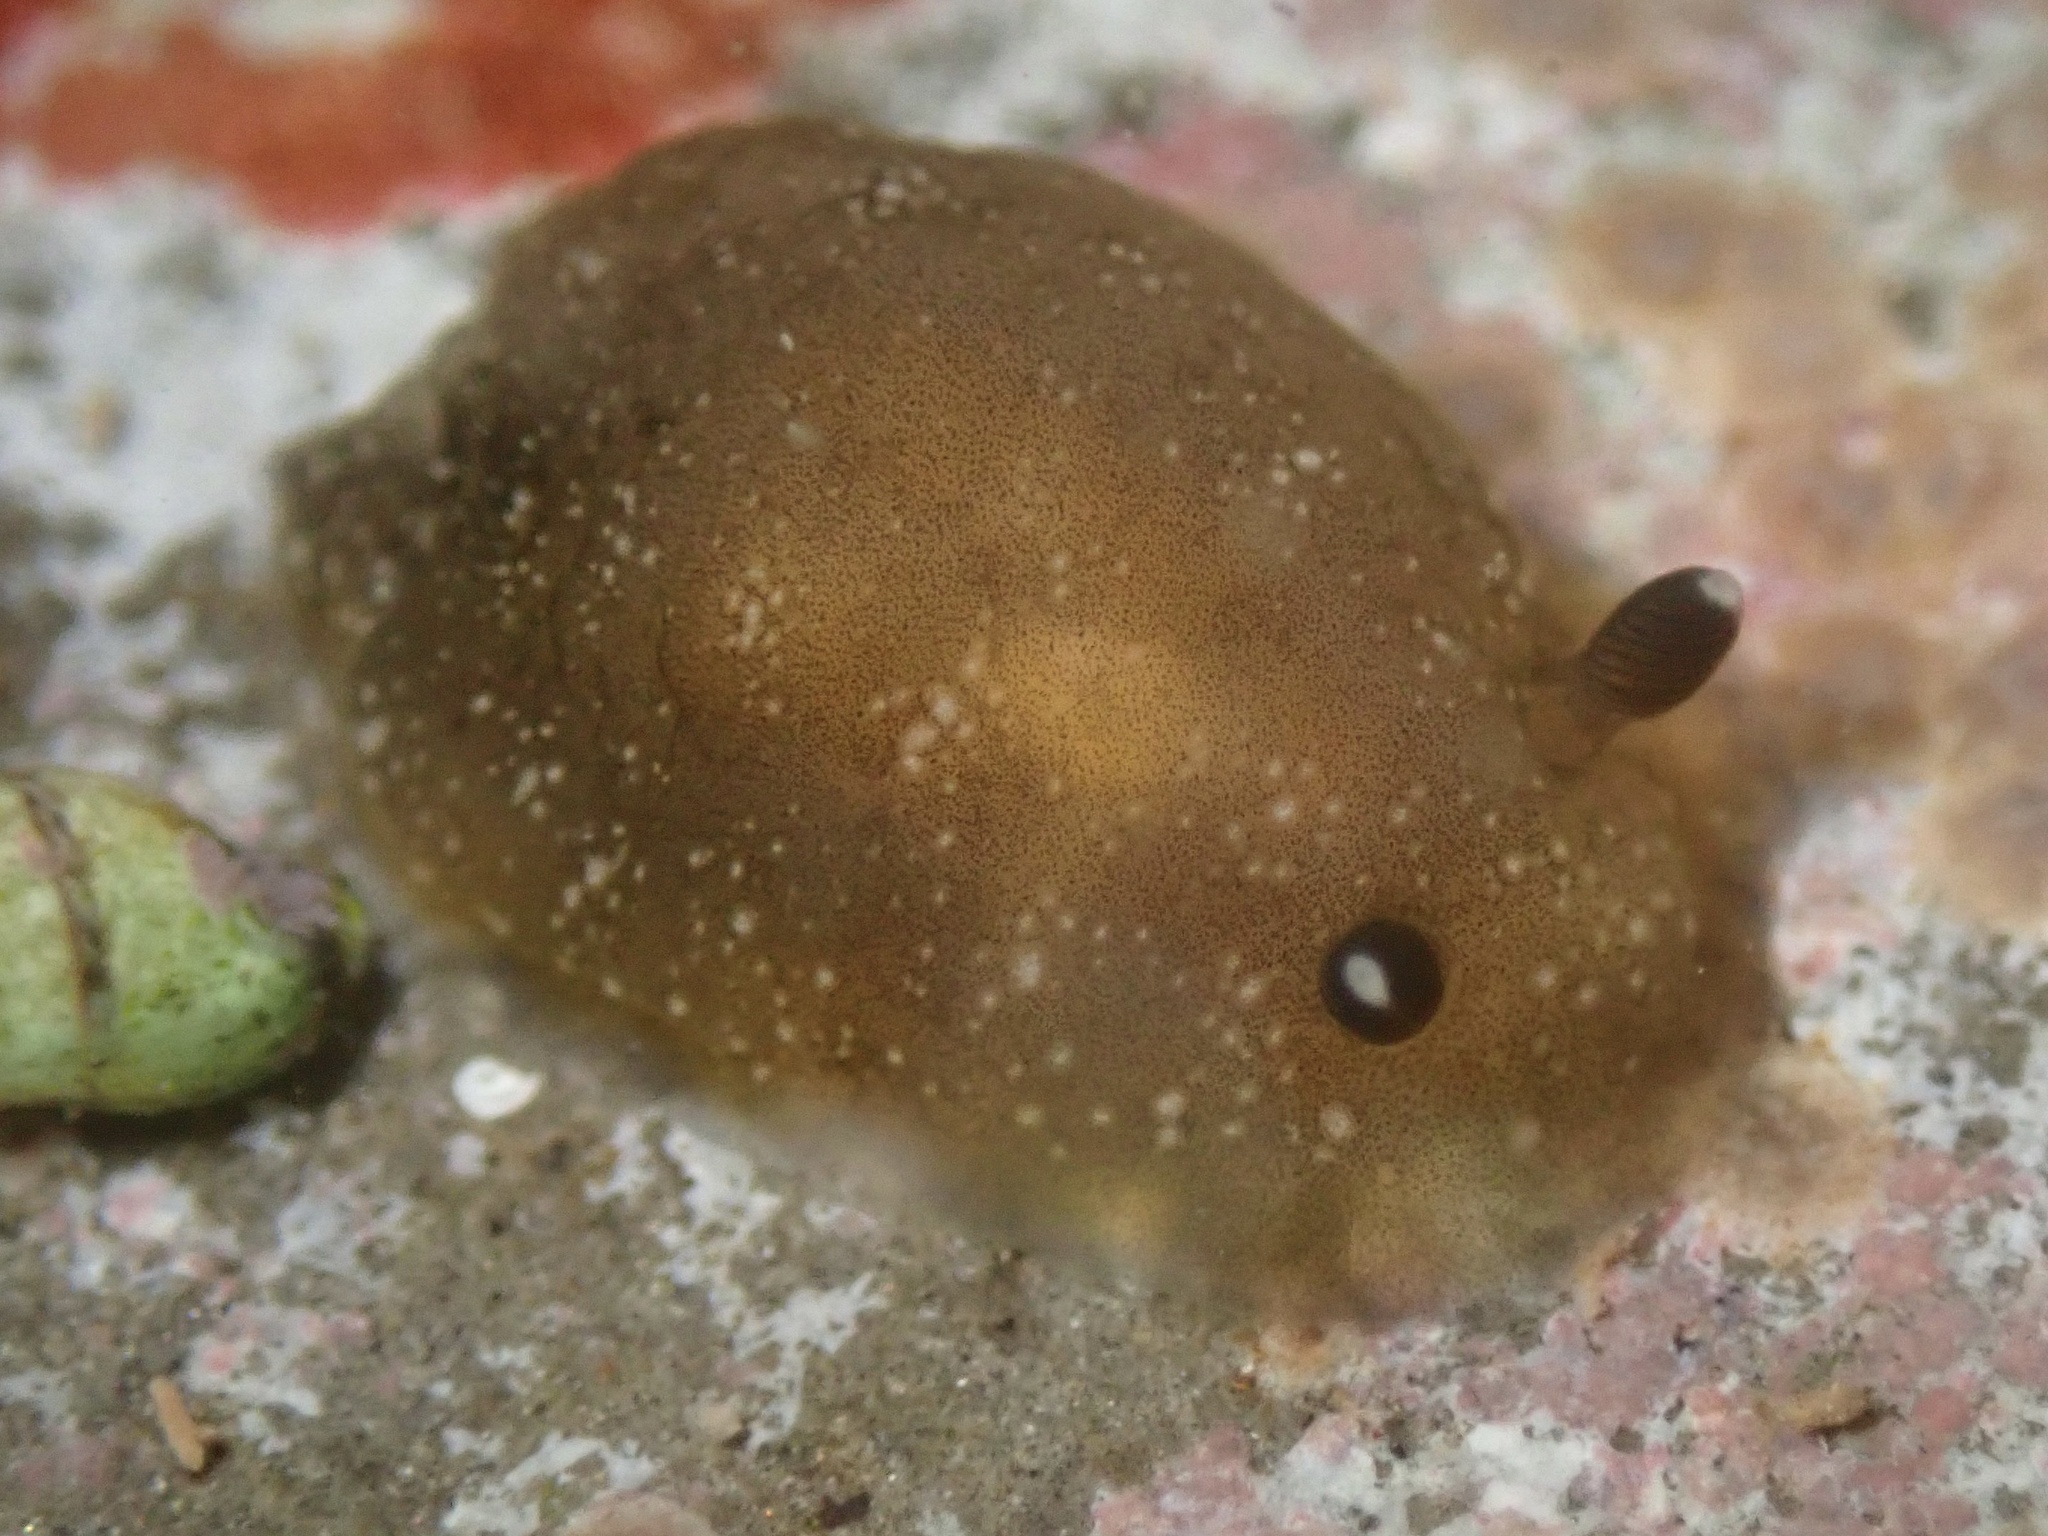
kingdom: Animalia
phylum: Mollusca
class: Gastropoda
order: Nudibranchia
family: Dendrodorididae
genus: Dendrodoris
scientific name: Dendrodoris nigra
